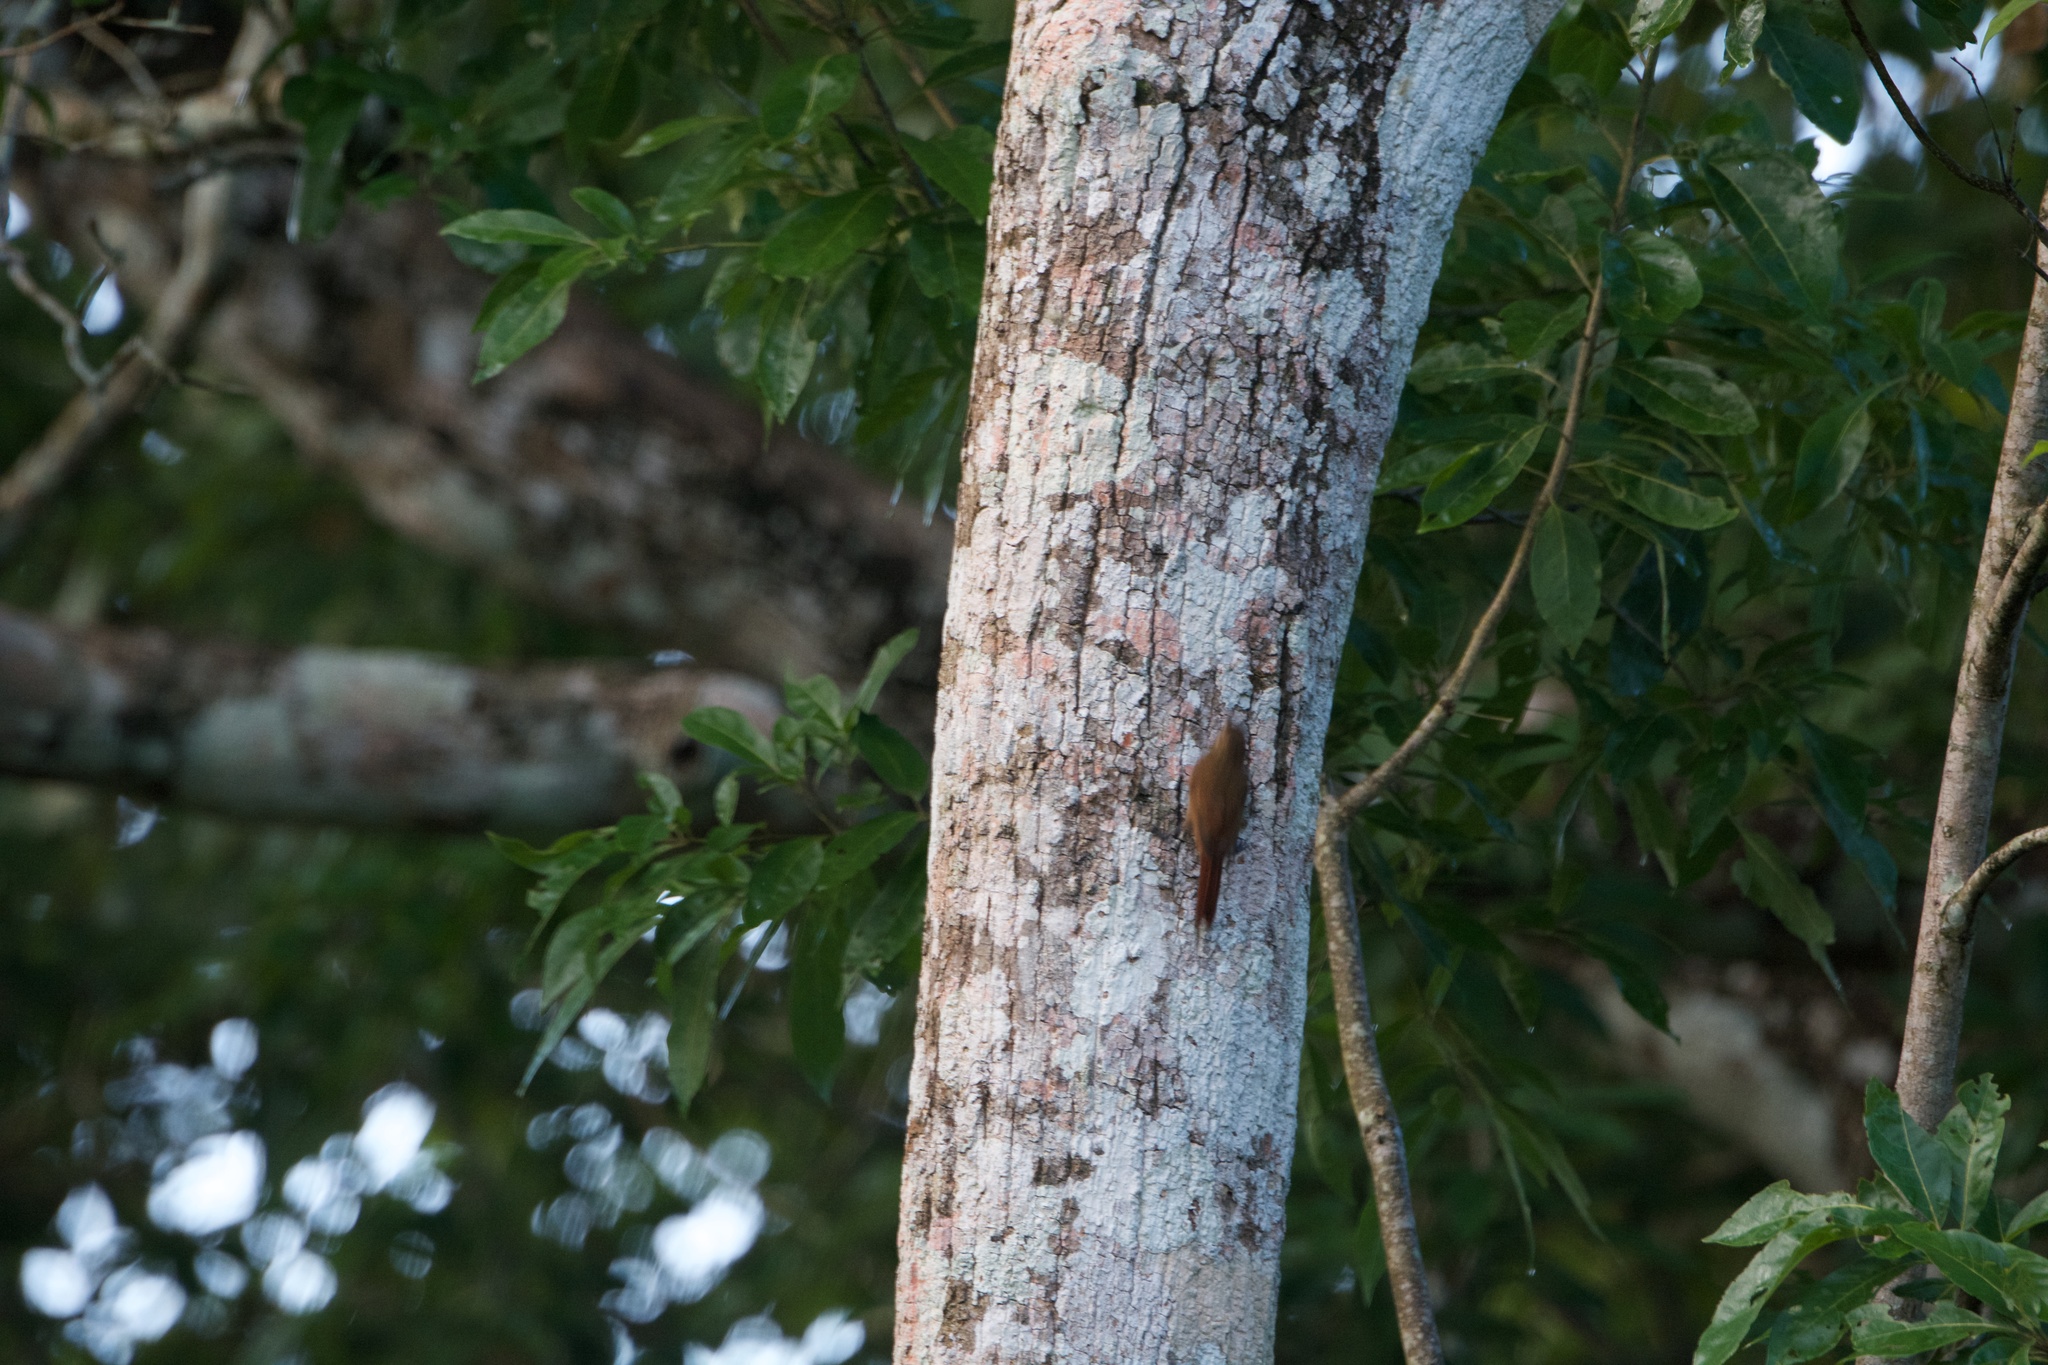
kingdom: Animalia
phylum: Chordata
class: Aves
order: Passeriformes
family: Furnariidae
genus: Glyphorynchus
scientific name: Glyphorynchus spirurus
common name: Wedge-billed woodcreeper
